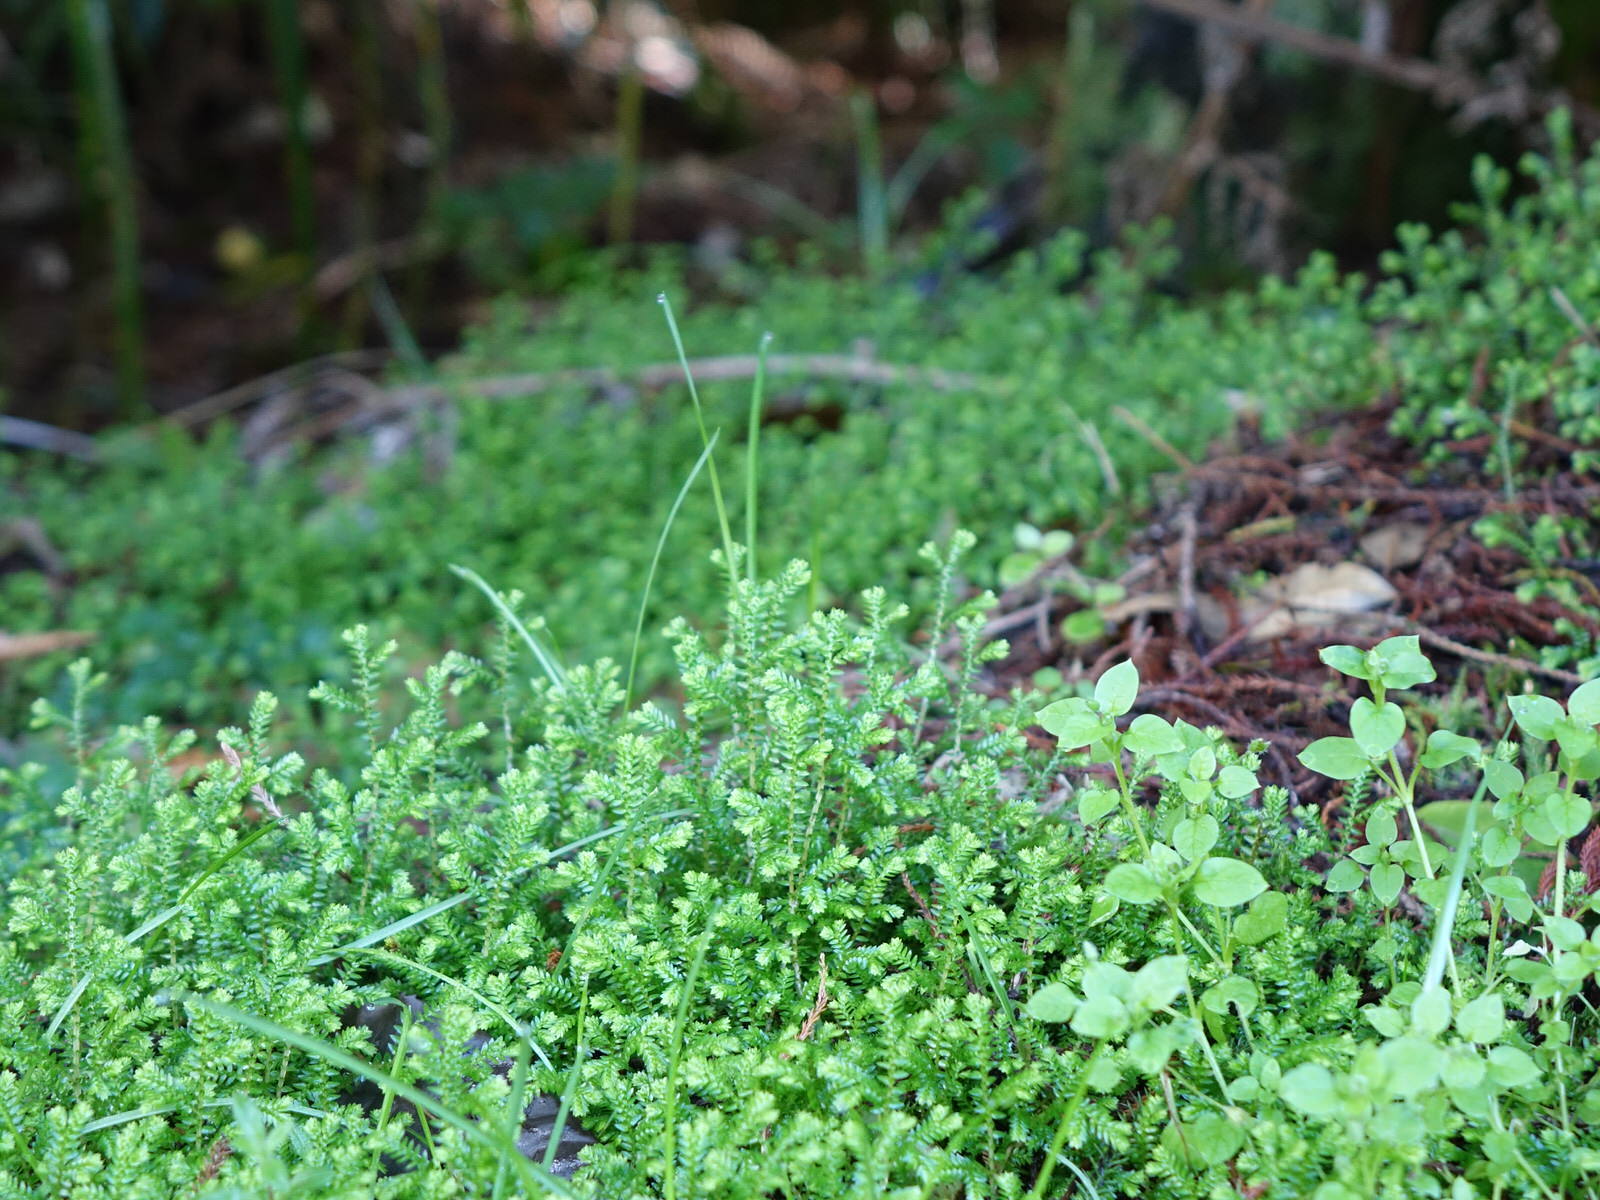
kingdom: Plantae
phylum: Tracheophyta
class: Lycopodiopsida
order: Selaginellales
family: Selaginellaceae
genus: Selaginella
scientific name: Selaginella kraussiana
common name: Krauss' spikemoss
